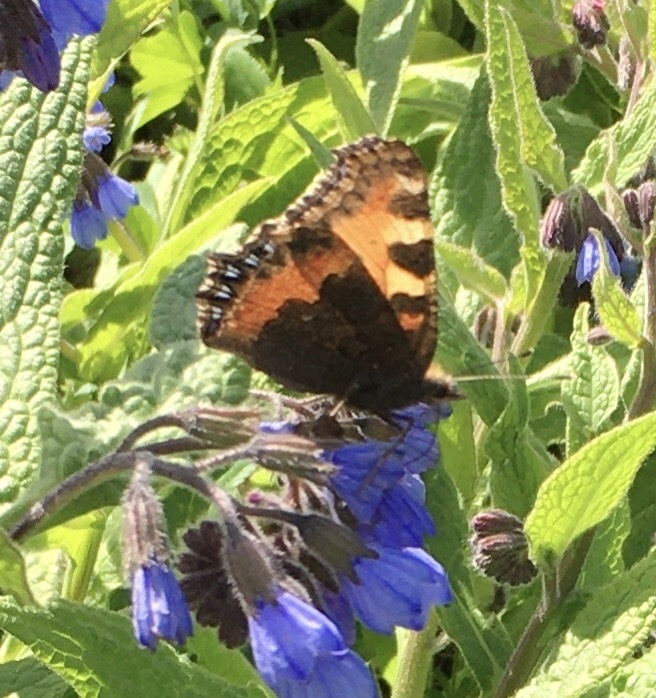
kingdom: Animalia
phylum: Arthropoda
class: Insecta
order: Lepidoptera
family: Nymphalidae
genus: Aglais
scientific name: Aglais urticae
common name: Small tortoiseshell
